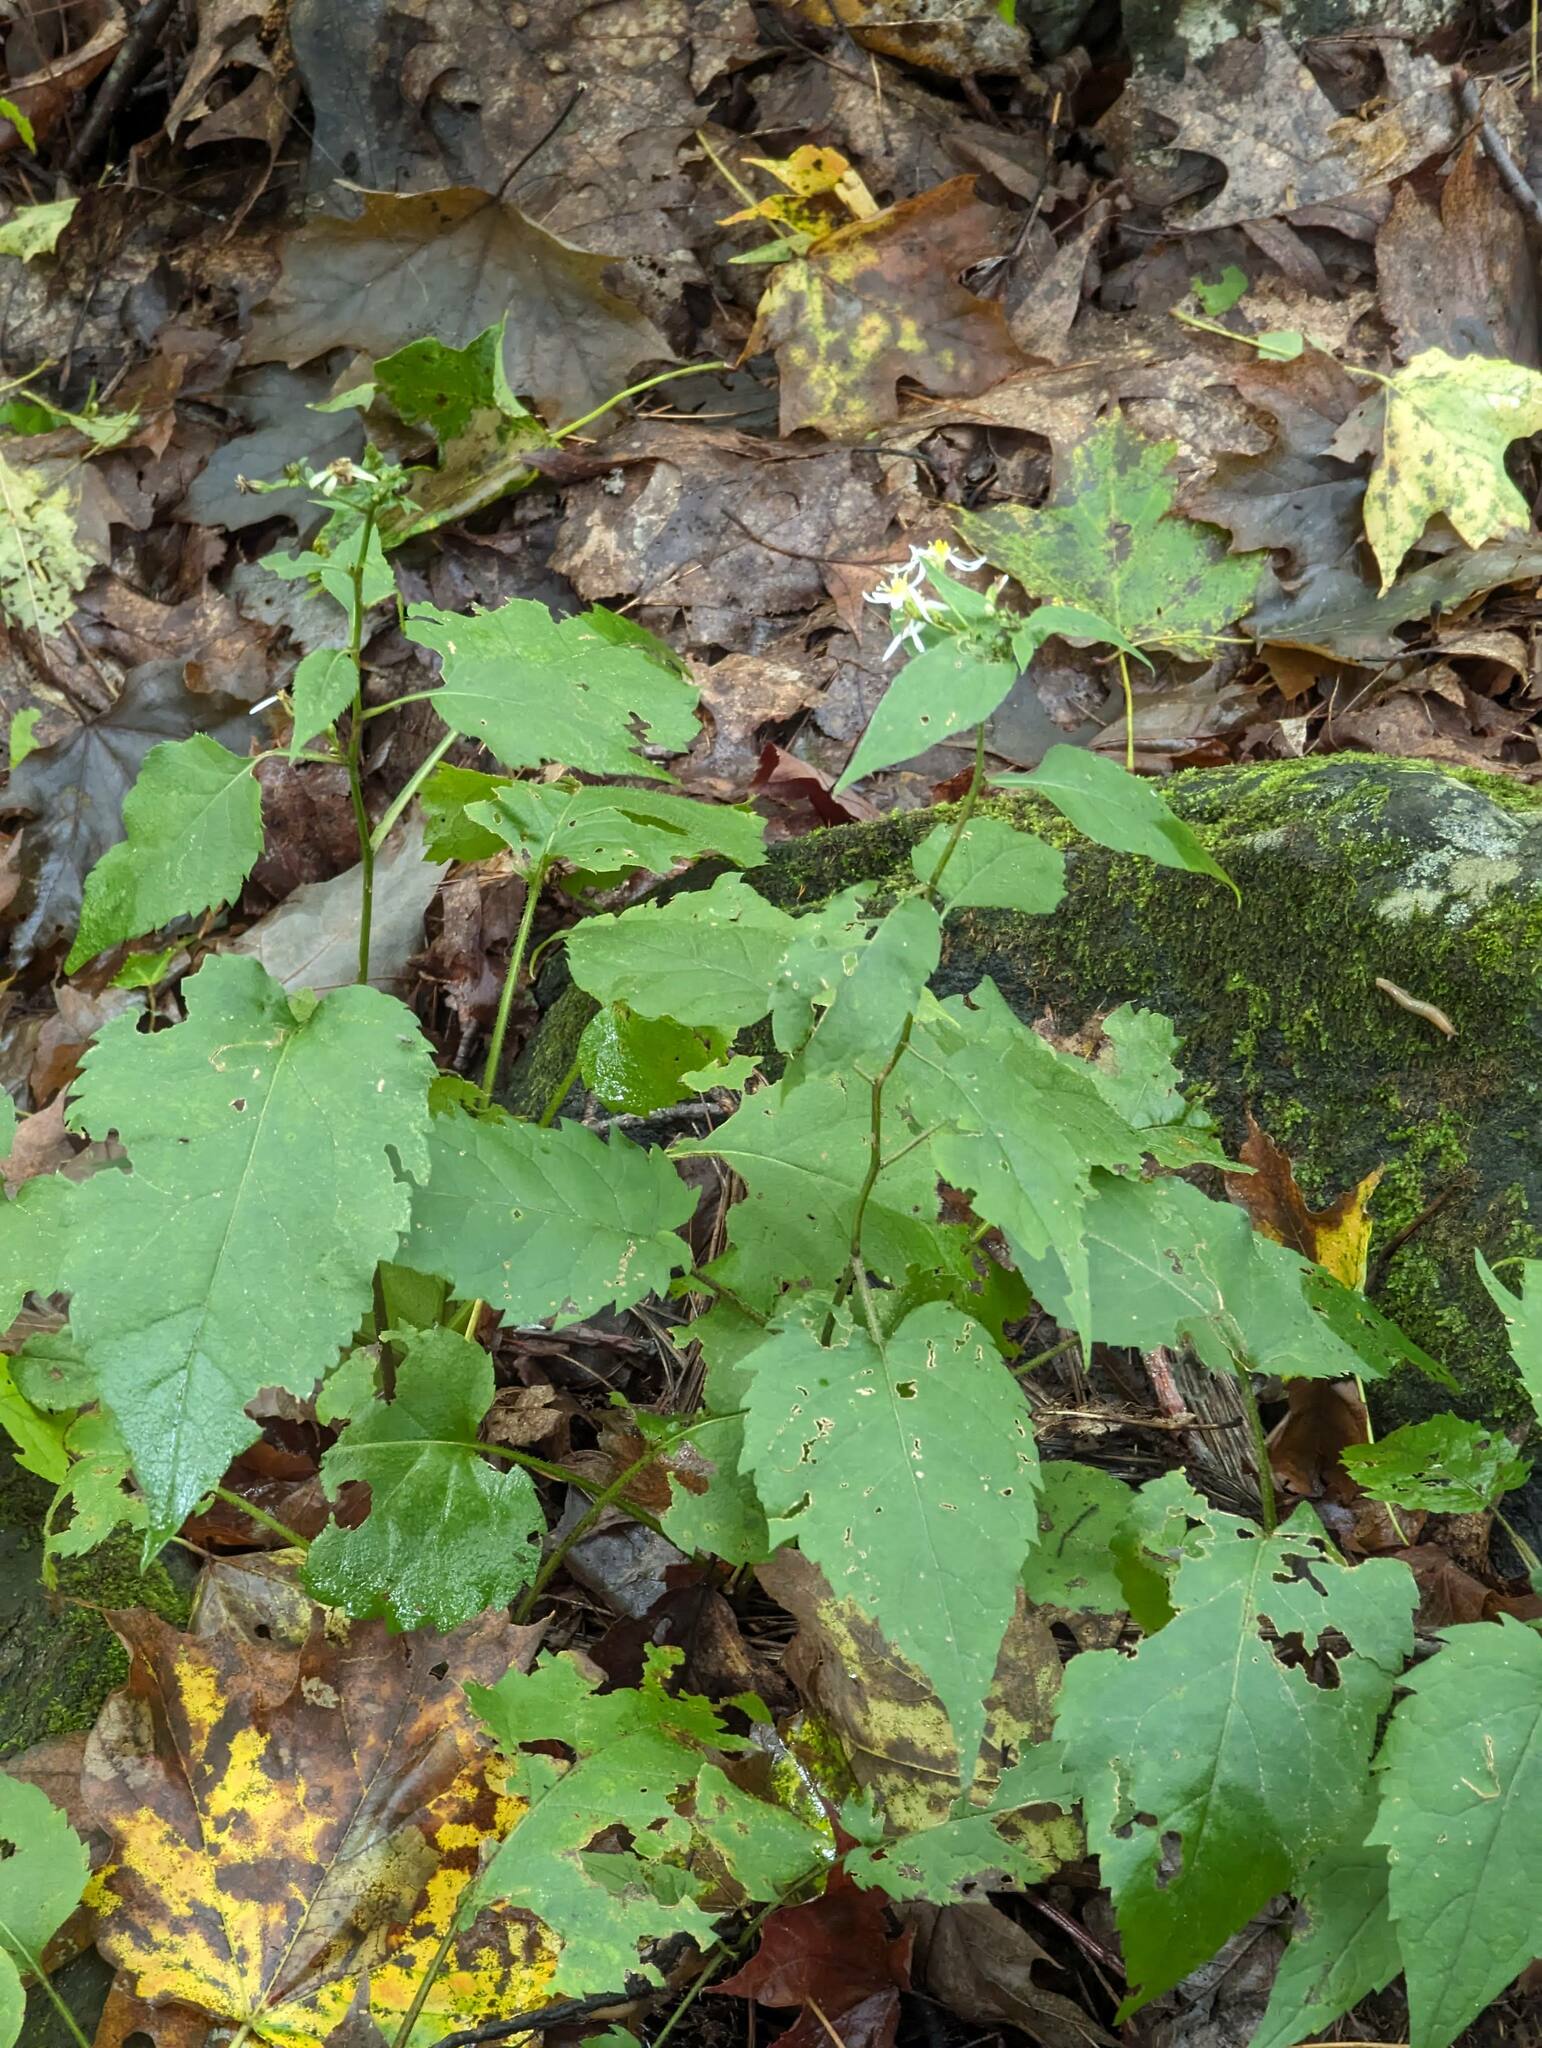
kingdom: Plantae
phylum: Tracheophyta
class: Magnoliopsida
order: Asterales
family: Asteraceae
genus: Eurybia
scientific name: Eurybia divaricata
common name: White wood aster
